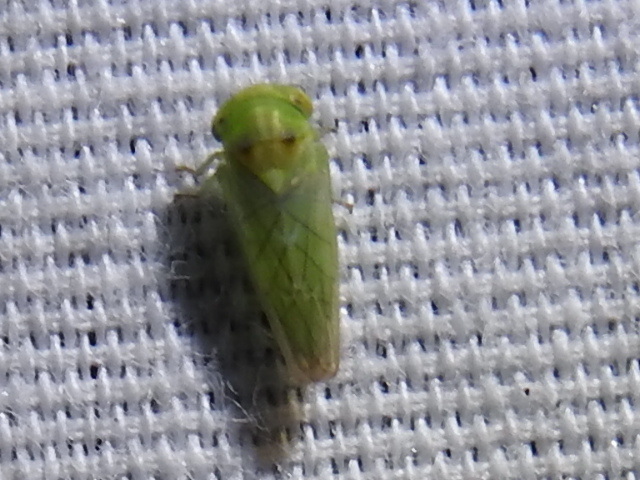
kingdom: Animalia
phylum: Arthropoda
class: Insecta
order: Hemiptera
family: Cicadellidae
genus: Idiocerus
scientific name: Idiocerus nervatus
